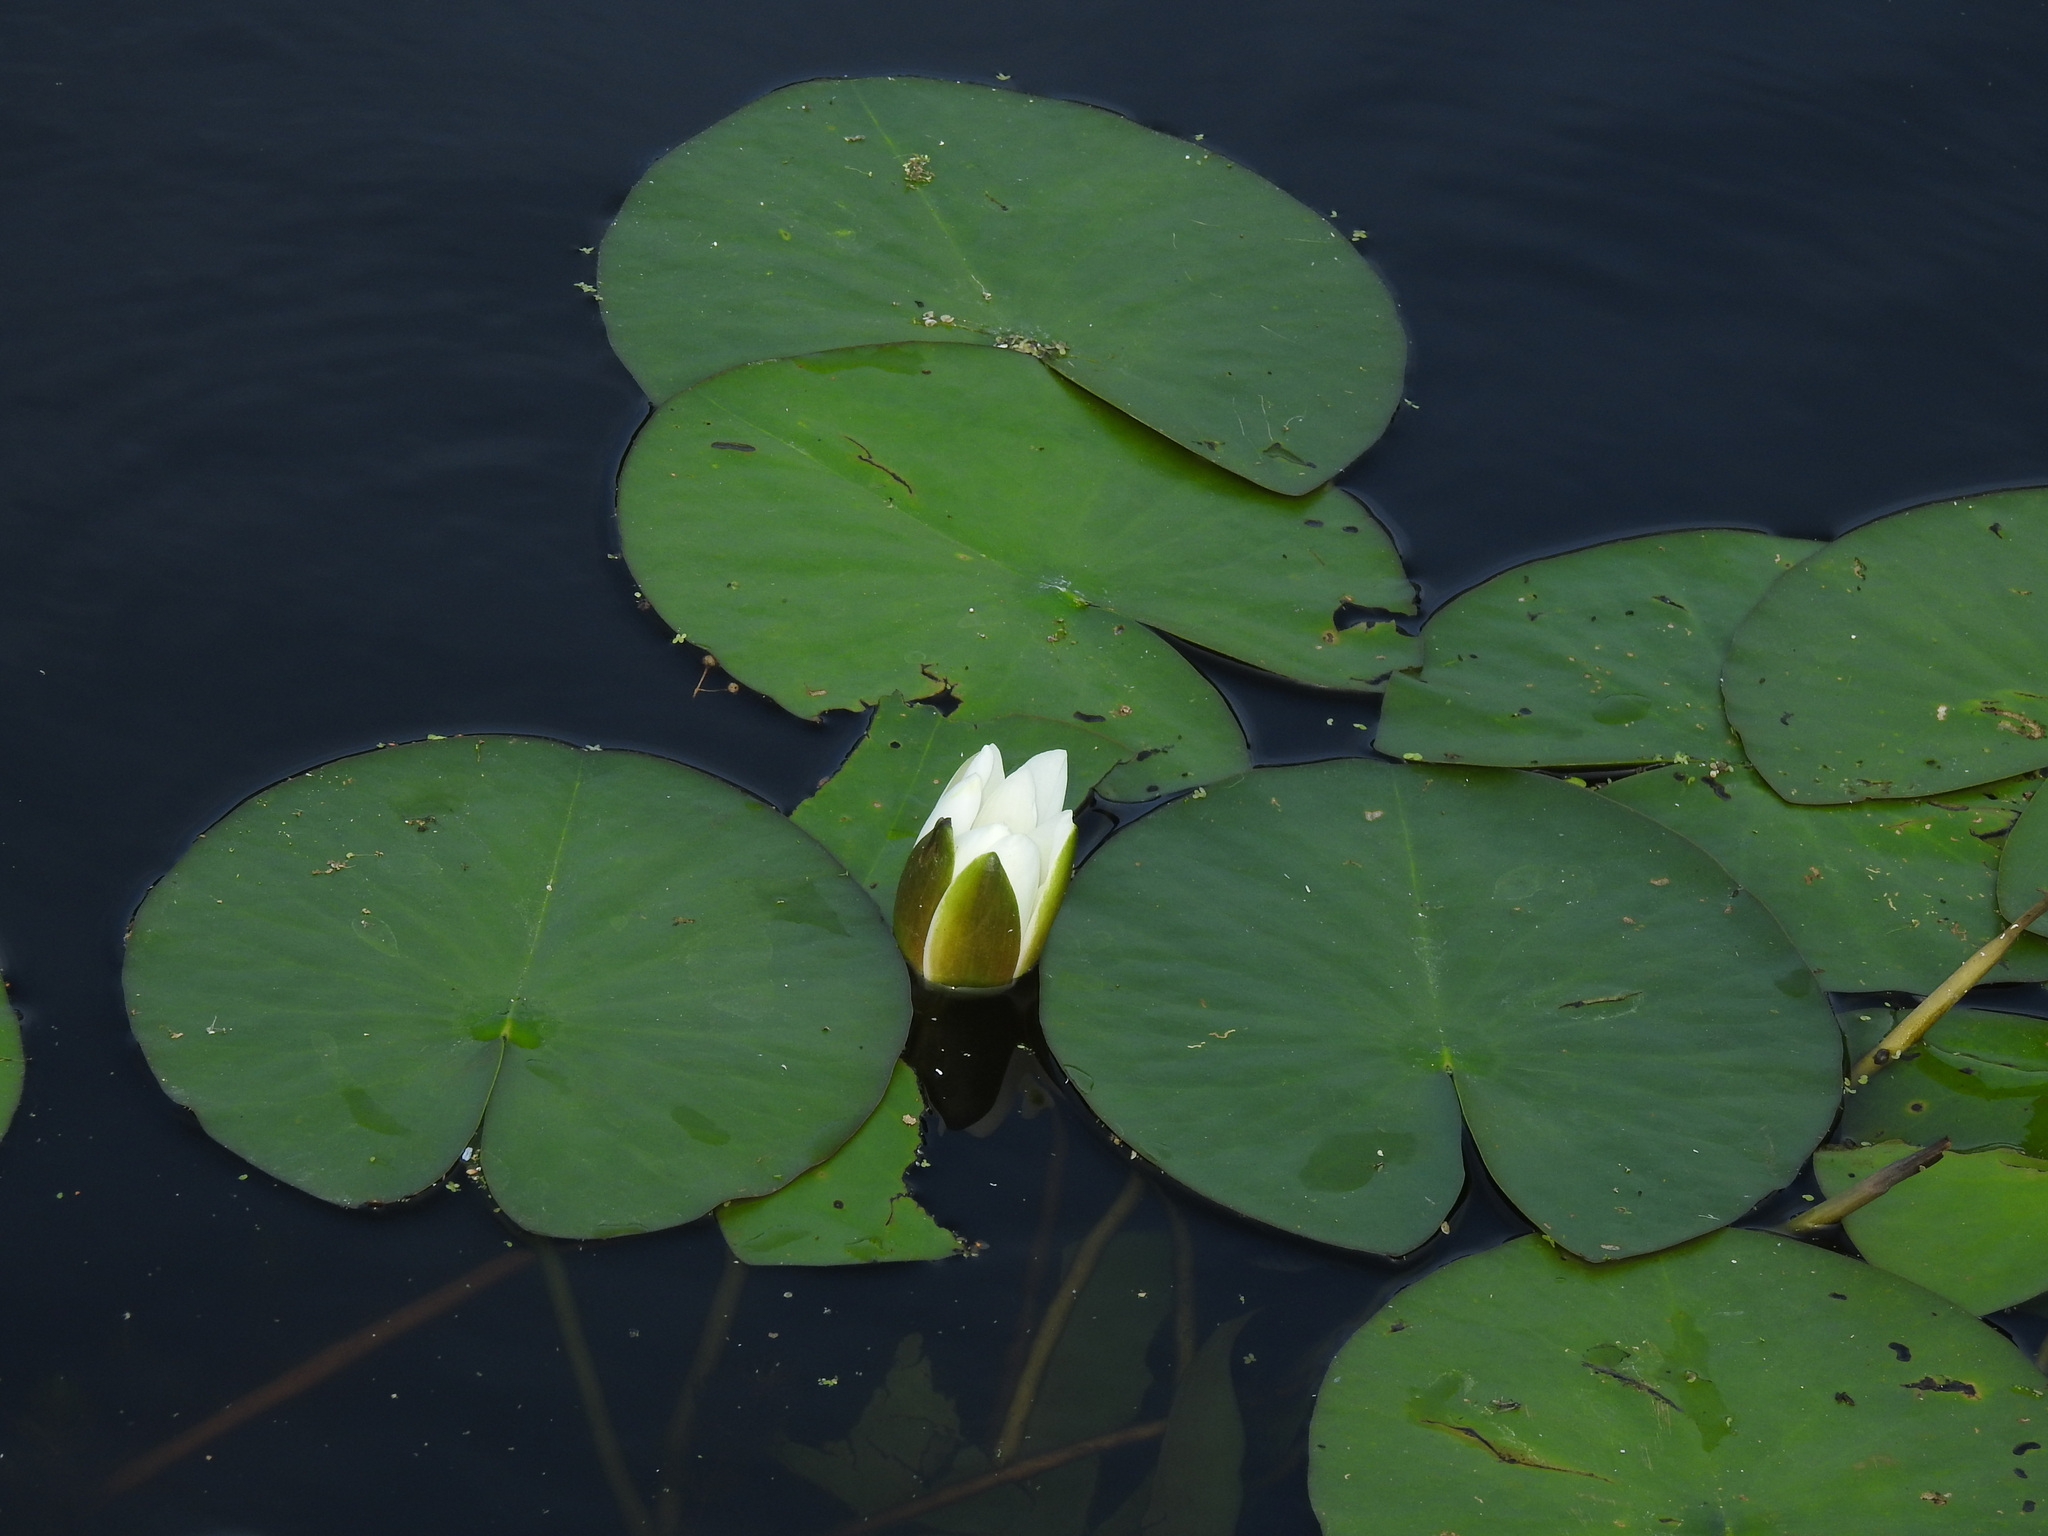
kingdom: Plantae
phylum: Tracheophyta
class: Magnoliopsida
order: Nymphaeales
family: Nymphaeaceae
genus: Nymphaea
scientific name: Nymphaea alba
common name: White water-lily
